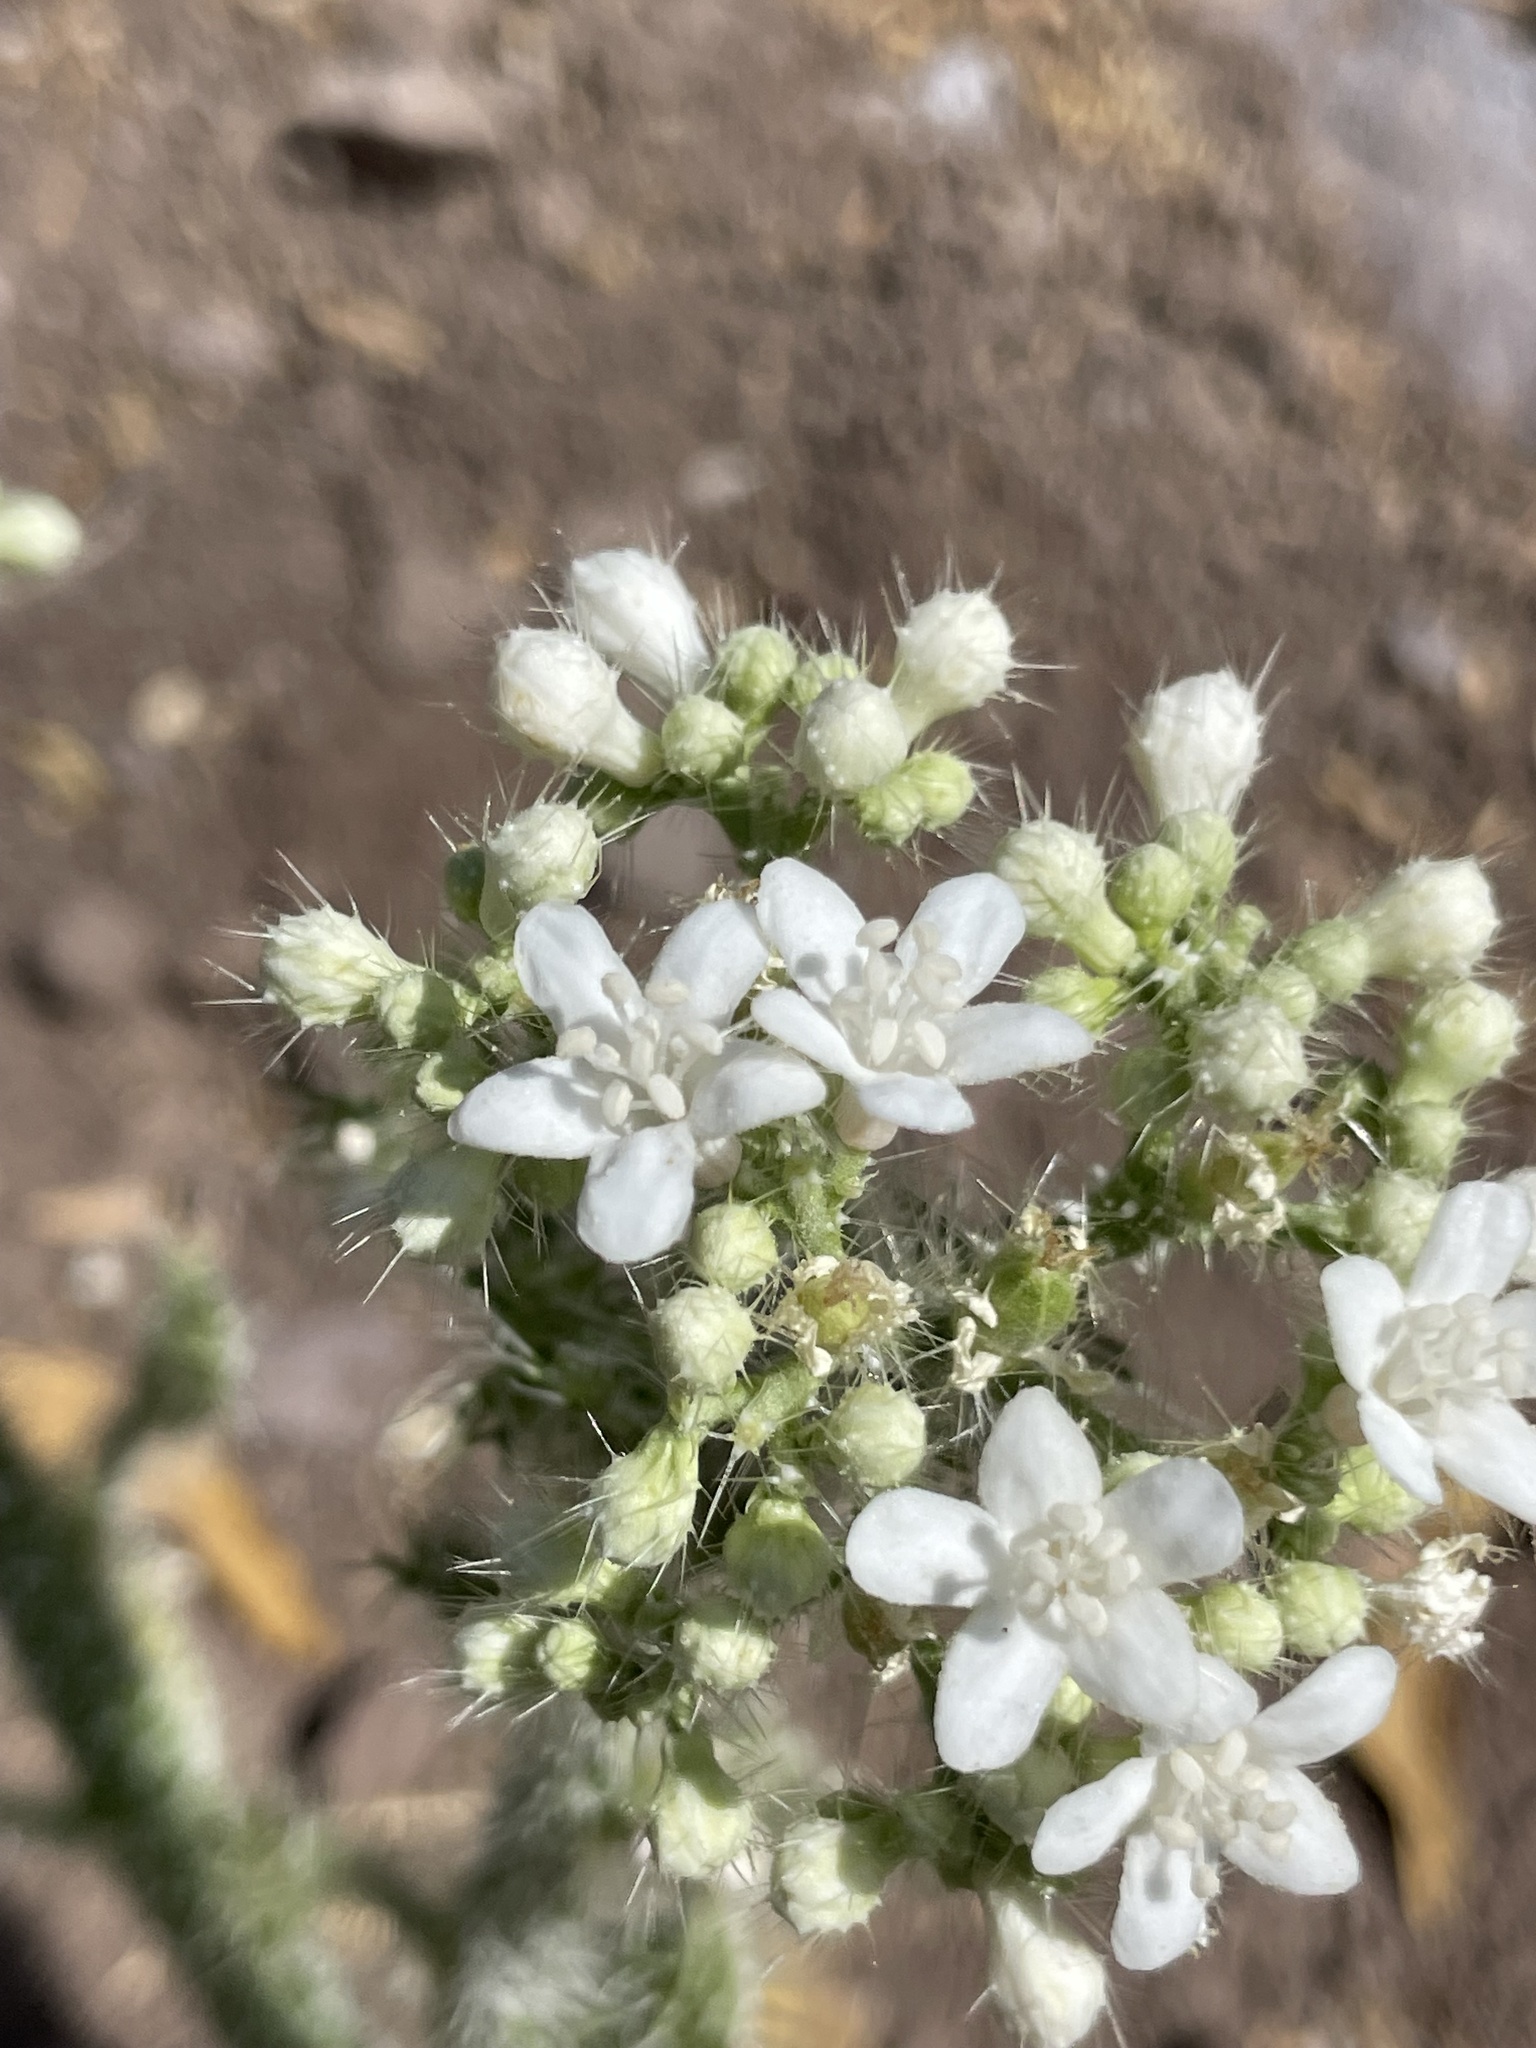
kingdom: Plantae
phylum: Tracheophyta
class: Magnoliopsida
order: Malpighiales
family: Euphorbiaceae
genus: Cnidoscolus
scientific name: Cnidoscolus maculatus
